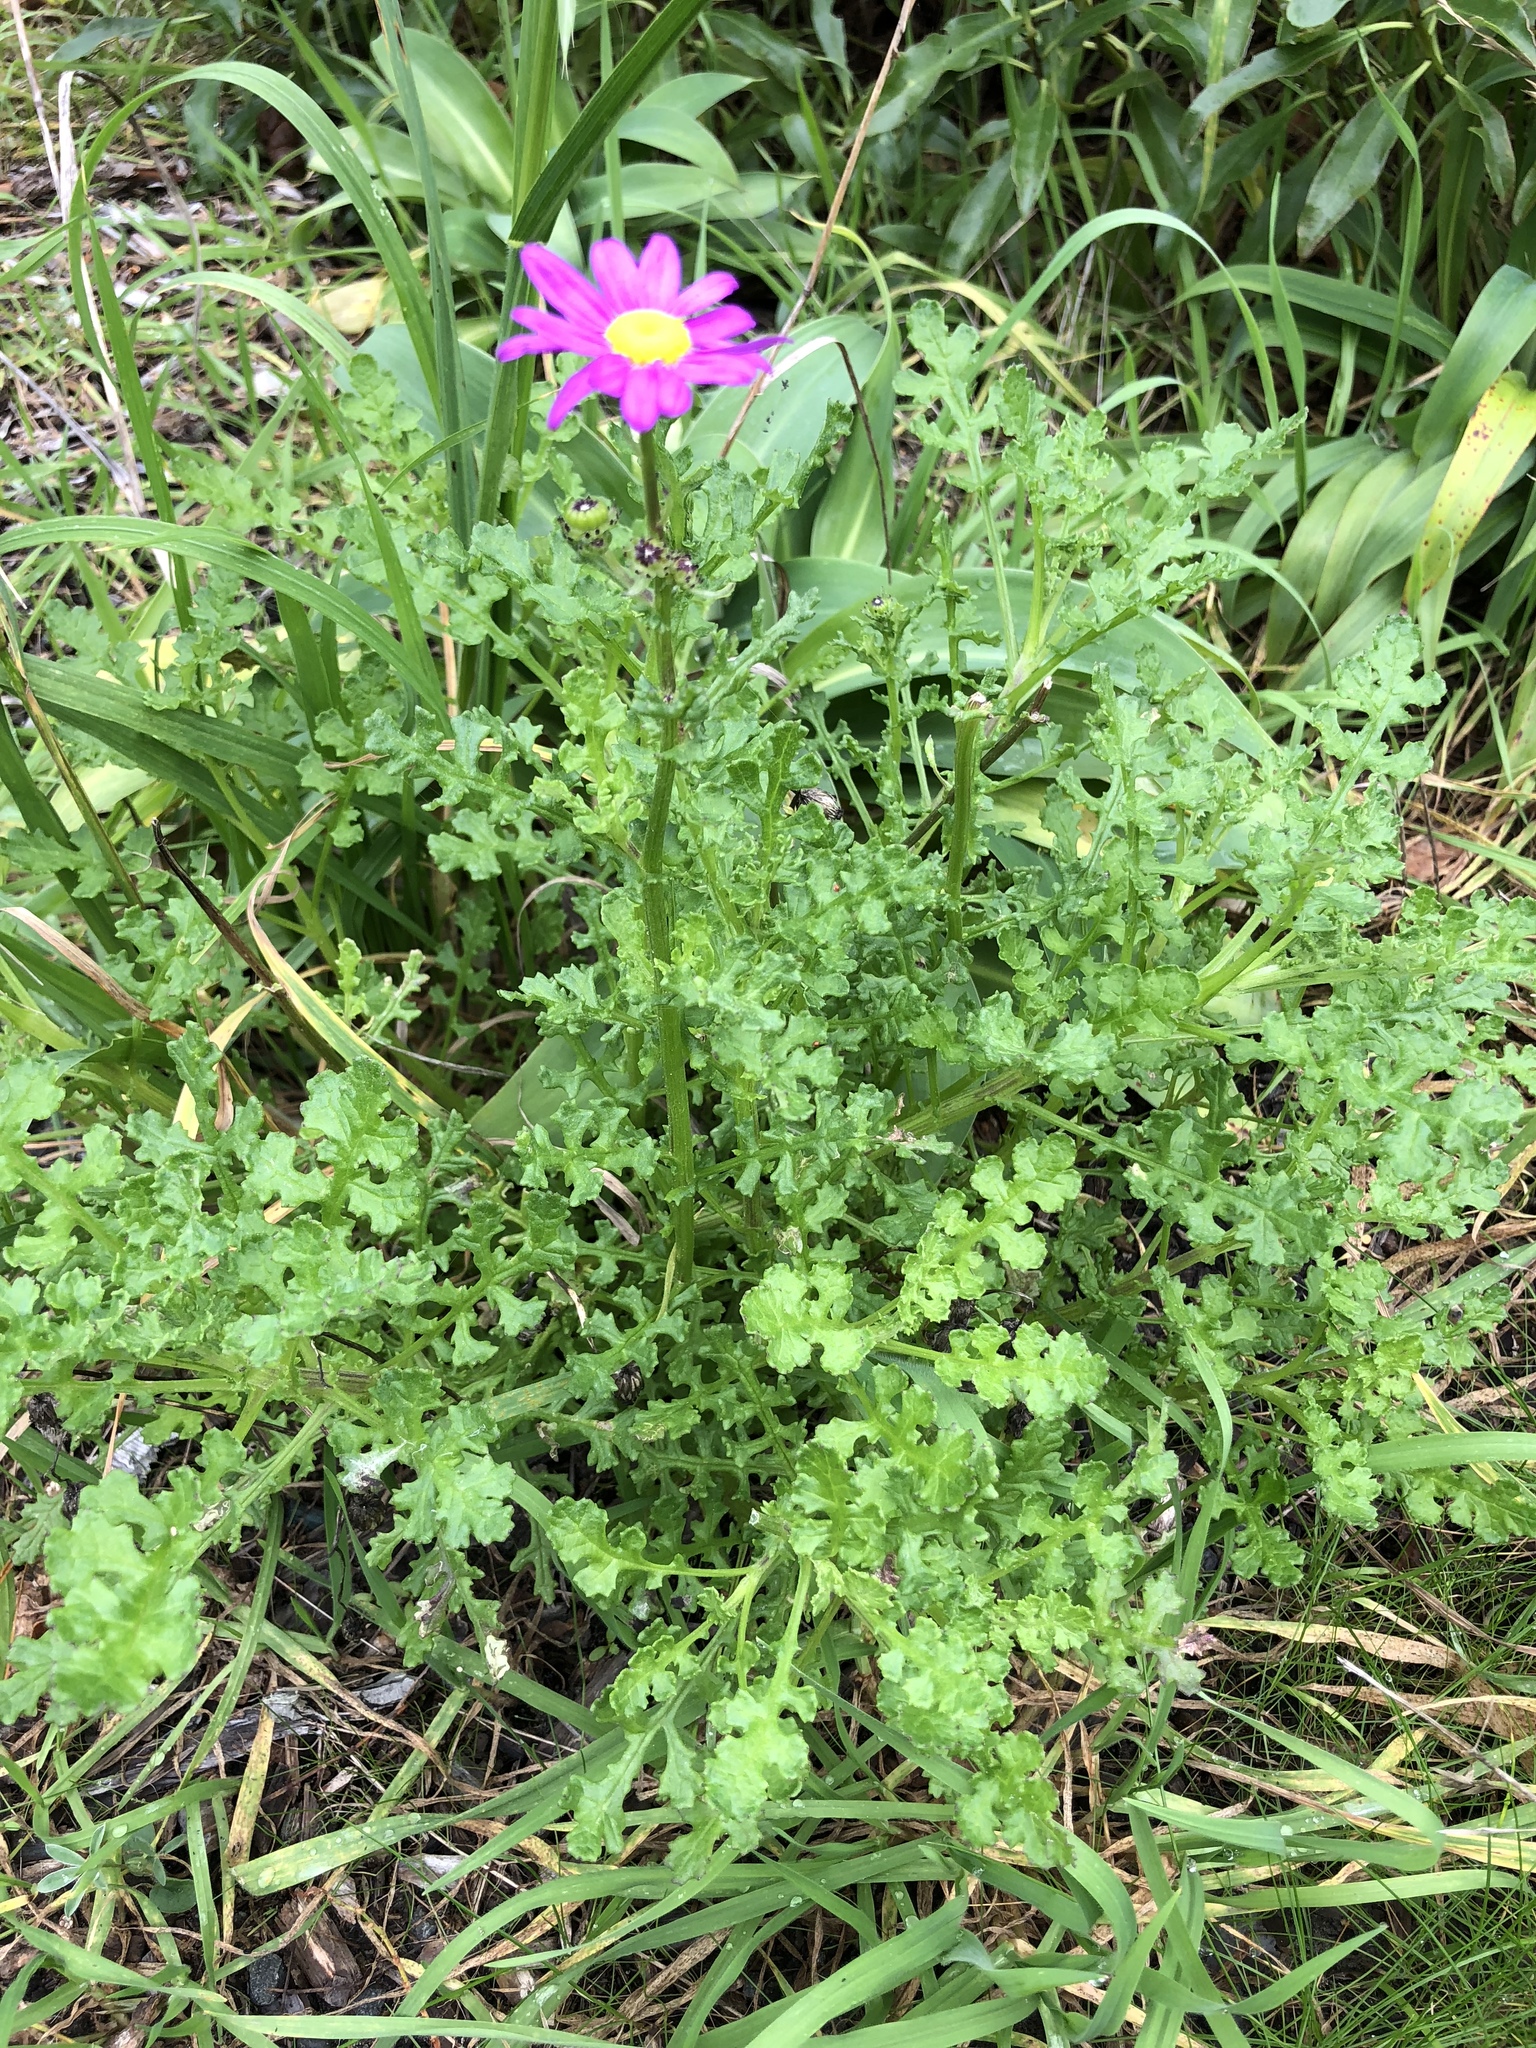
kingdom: Plantae
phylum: Tracheophyta
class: Magnoliopsida
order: Asterales
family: Asteraceae
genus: Senecio
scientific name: Senecio elegans
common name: Purple groundsel
